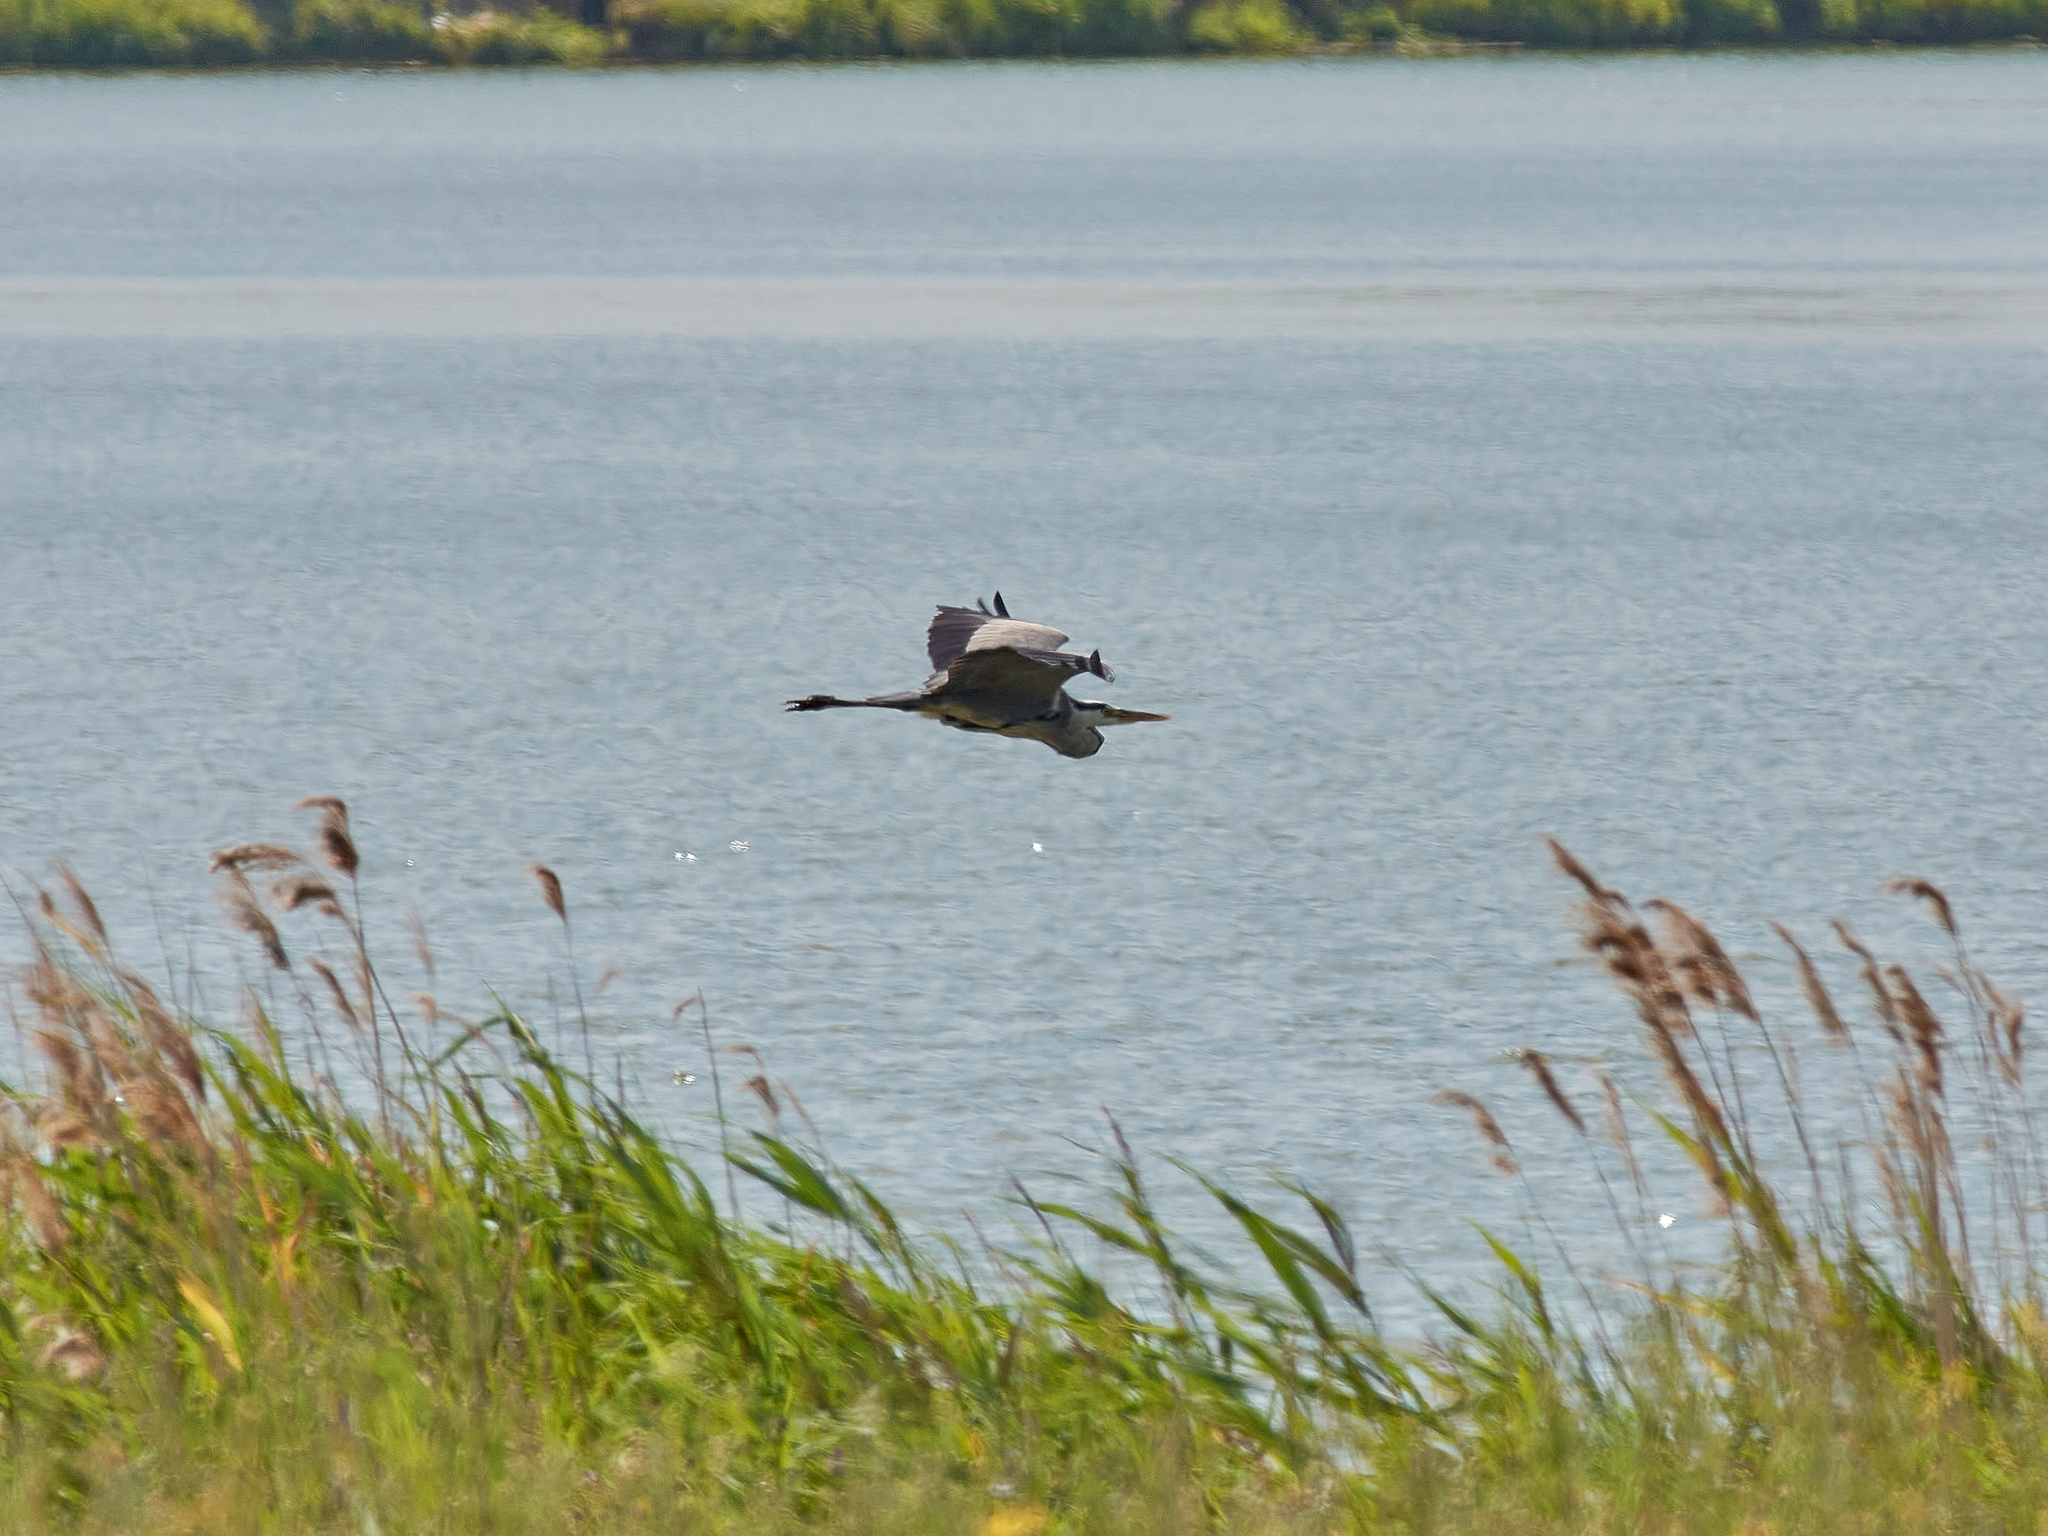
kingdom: Animalia
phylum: Chordata
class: Aves
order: Pelecaniformes
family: Ardeidae
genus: Ardea
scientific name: Ardea cinerea
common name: Grey heron
